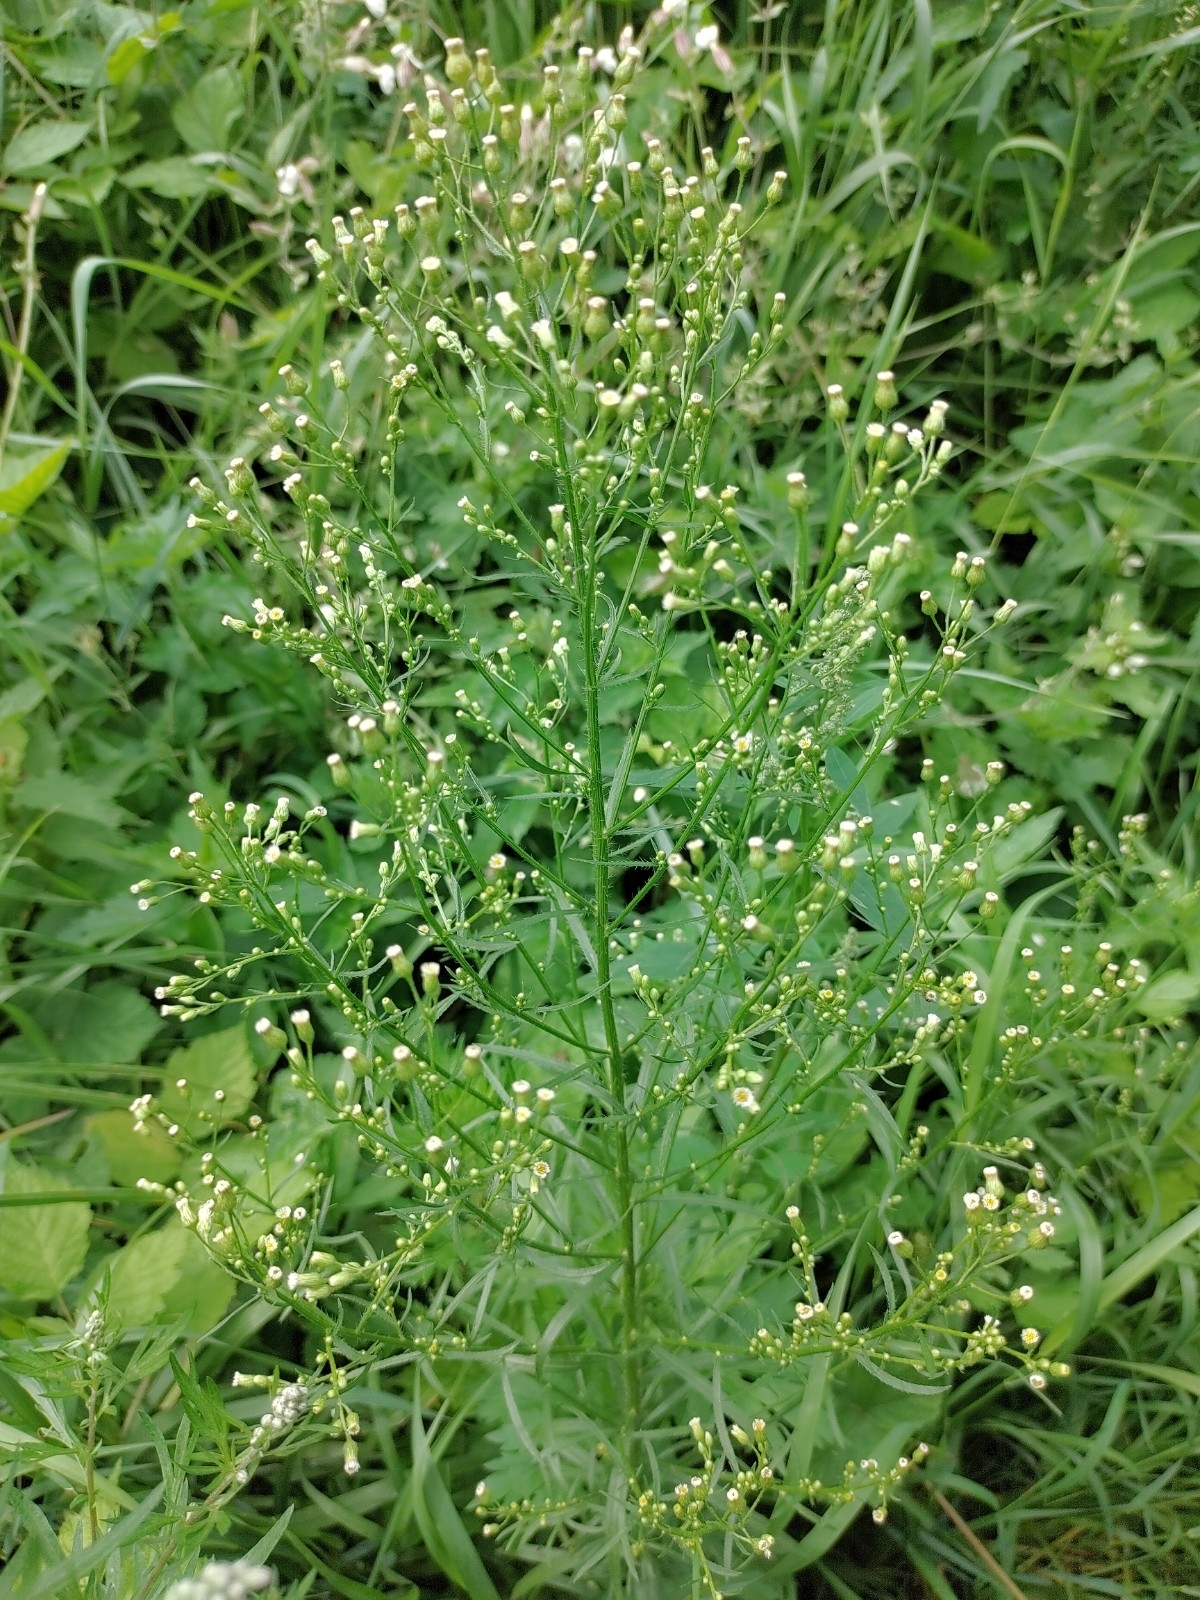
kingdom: Plantae
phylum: Tracheophyta
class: Magnoliopsida
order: Asterales
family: Asteraceae
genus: Erigeron
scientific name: Erigeron canadensis
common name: Canadian fleabane
